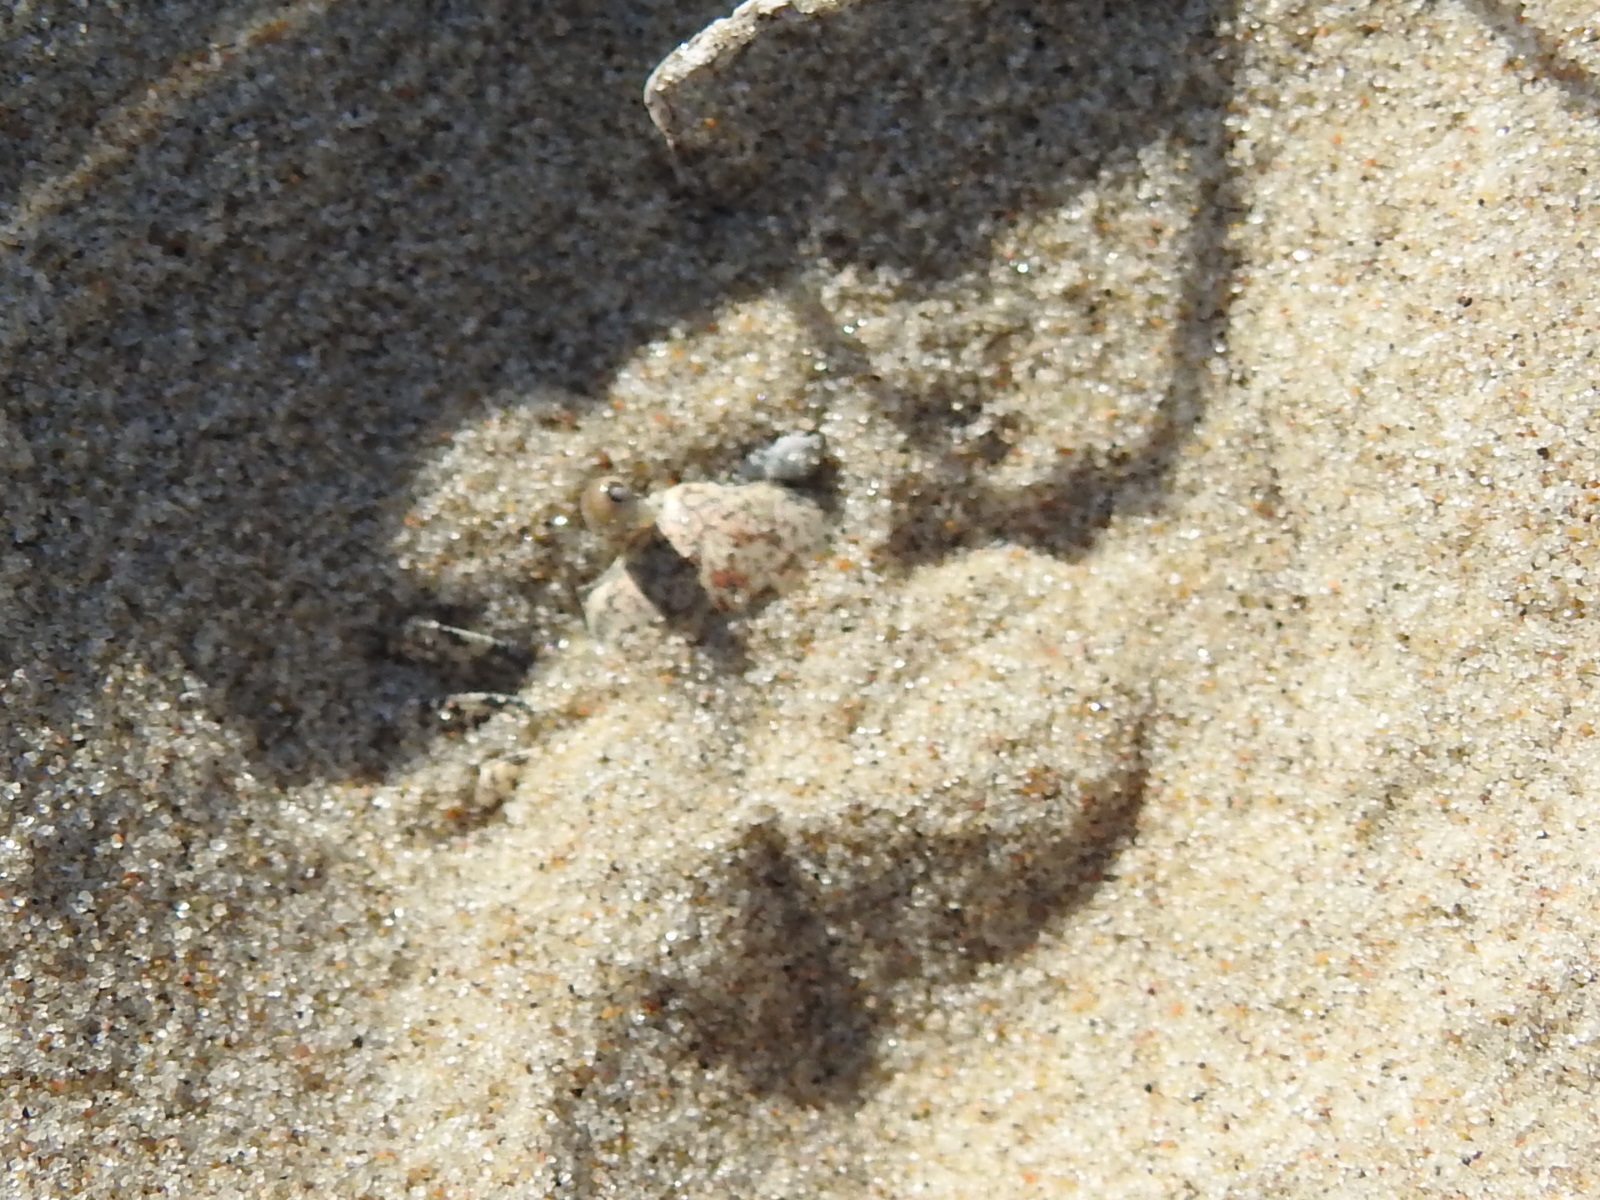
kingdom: Animalia
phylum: Arthropoda
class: Malacostraca
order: Decapoda
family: Ocypodidae
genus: Ocypode
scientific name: Ocypode quadrata
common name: Ghost crab
